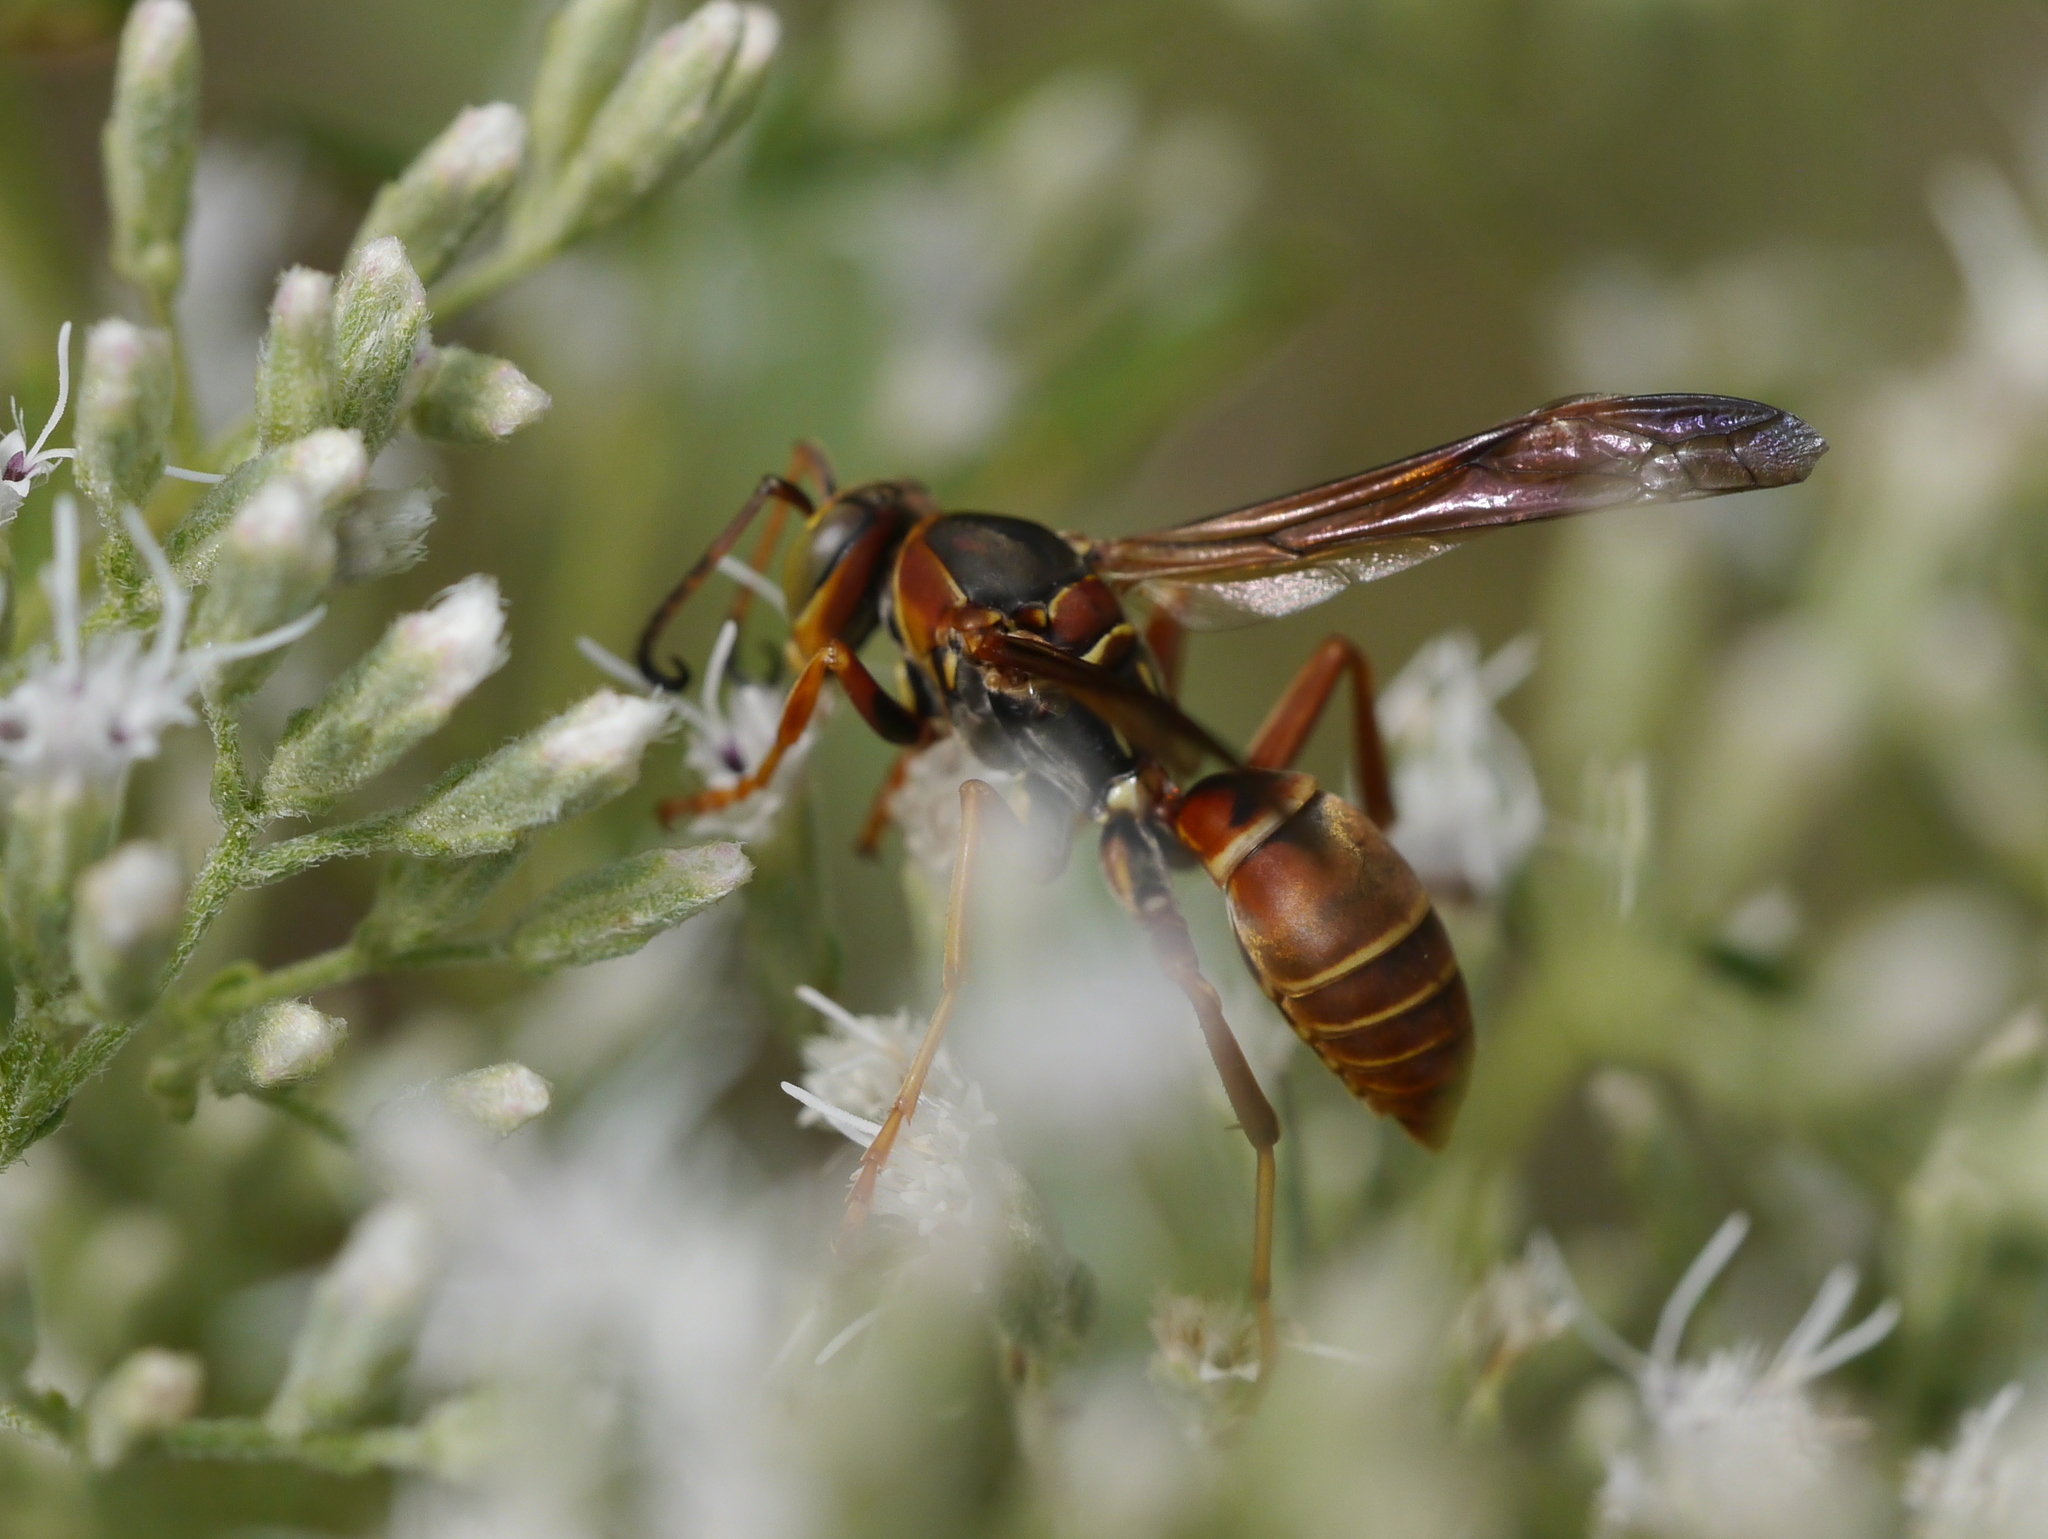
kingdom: Animalia
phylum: Arthropoda
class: Insecta
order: Hymenoptera
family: Eumenidae
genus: Polistes
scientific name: Polistes fuscatus
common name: Dark paper wasp
